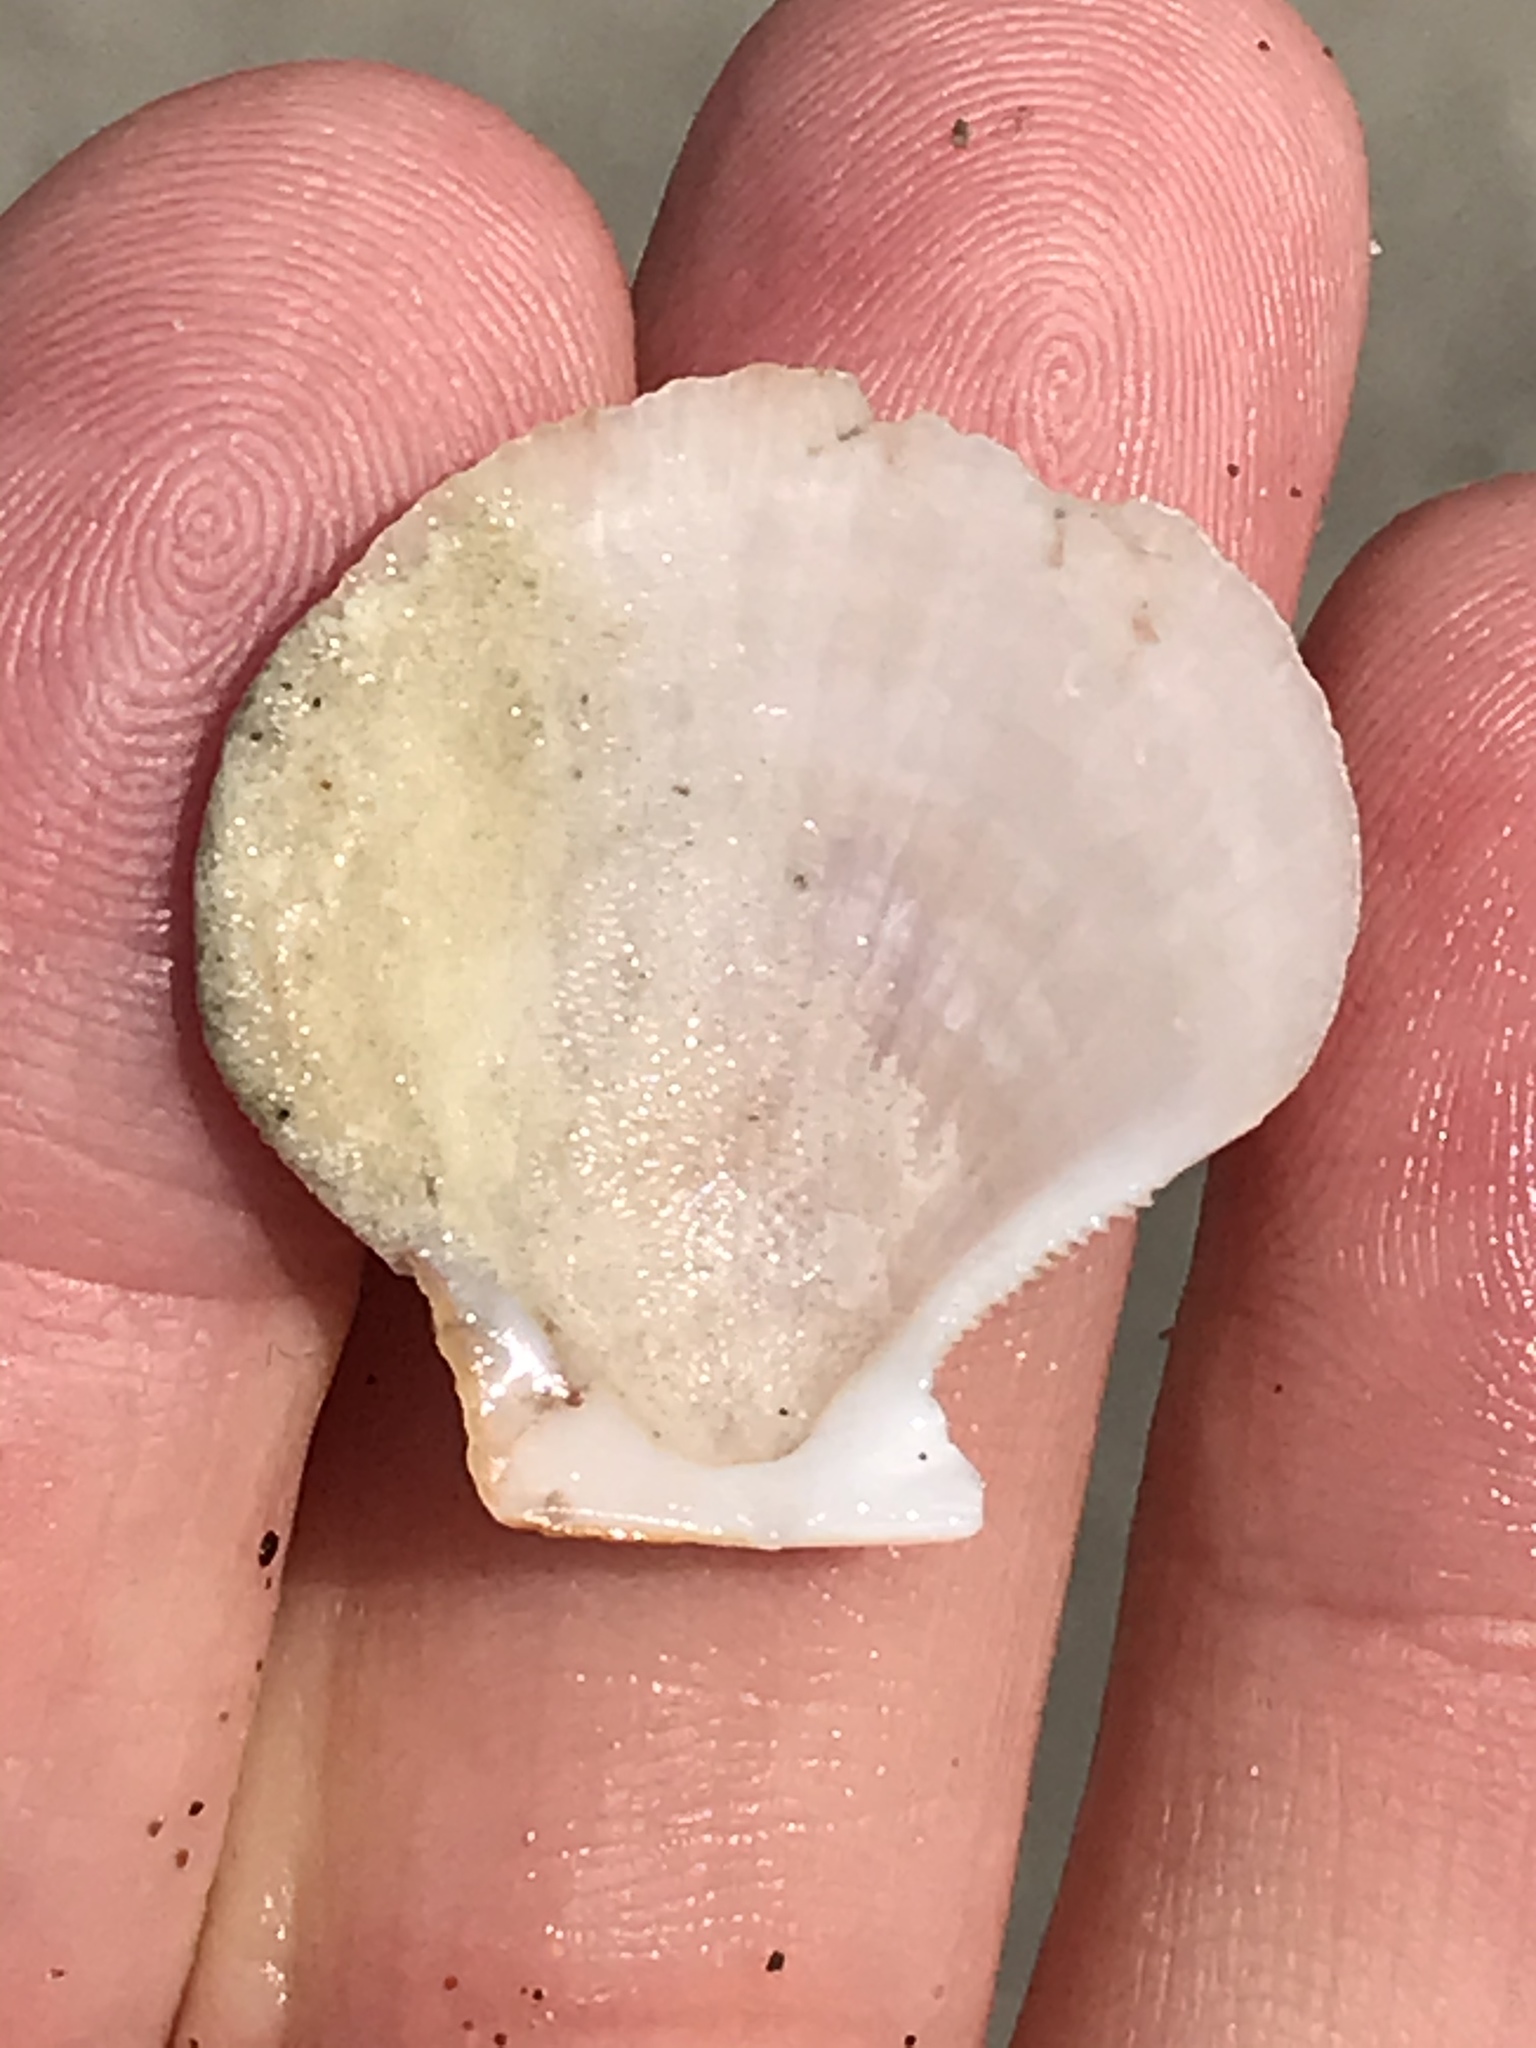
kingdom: Animalia
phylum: Mollusca
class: Bivalvia
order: Pectinida
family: Pectinidae
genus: Crassadoma
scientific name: Crassadoma gigantea
